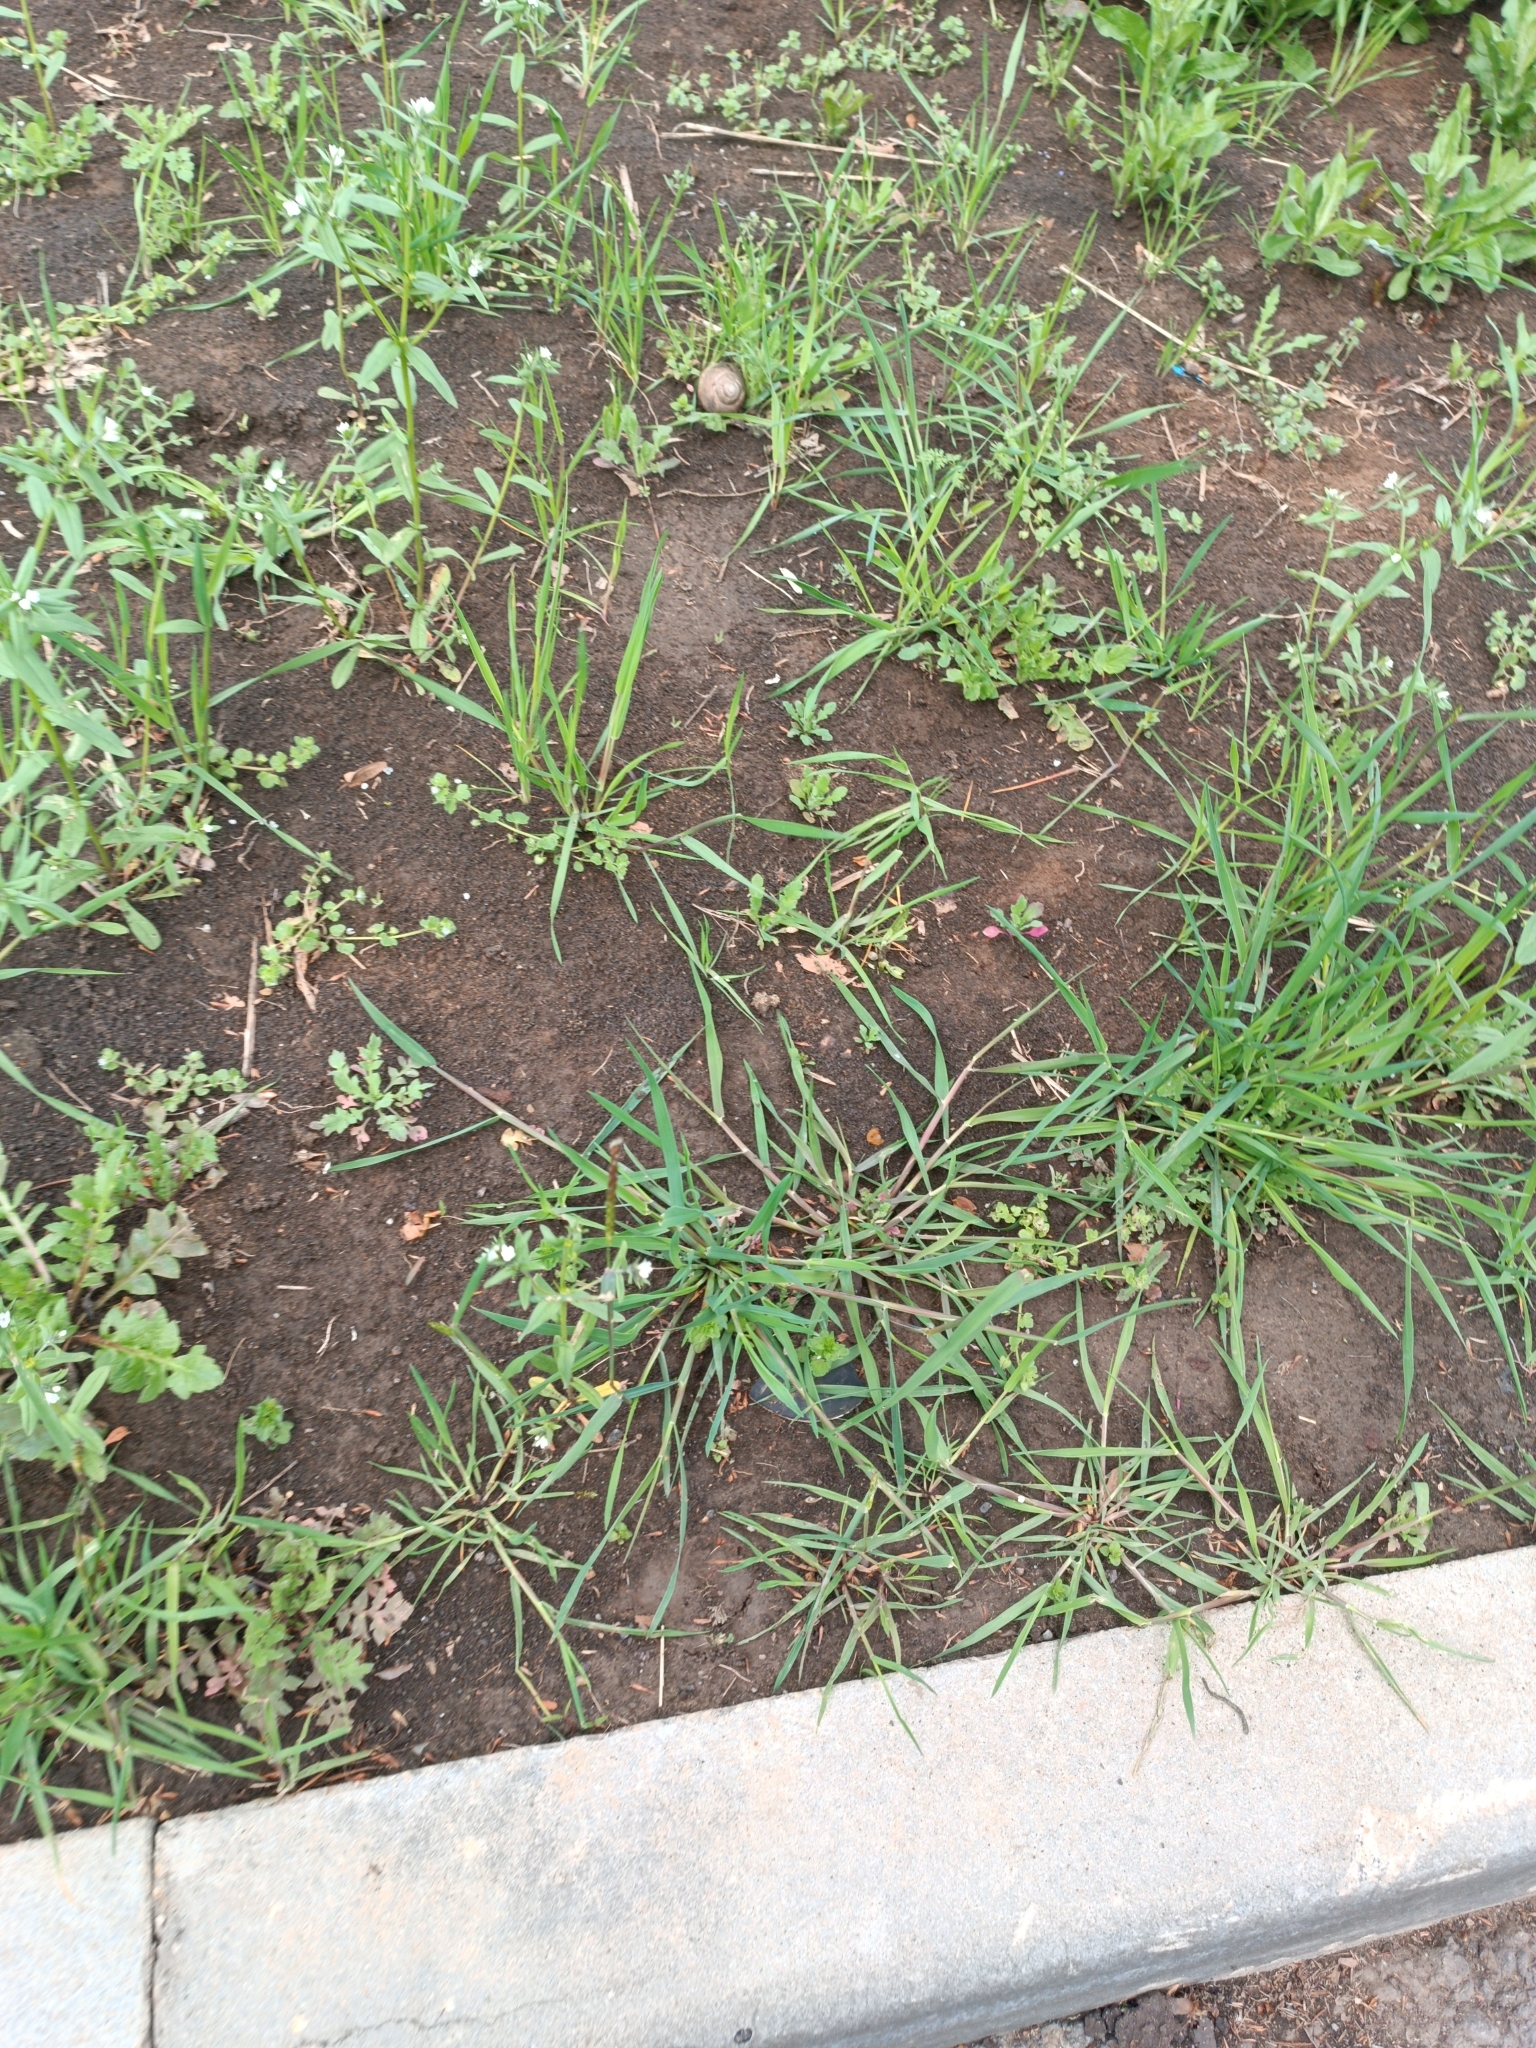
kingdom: Plantae
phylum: Tracheophyta
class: Liliopsida
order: Poales
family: Poaceae
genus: Alopecurus
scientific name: Alopecurus myosuroides
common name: Black-grass
